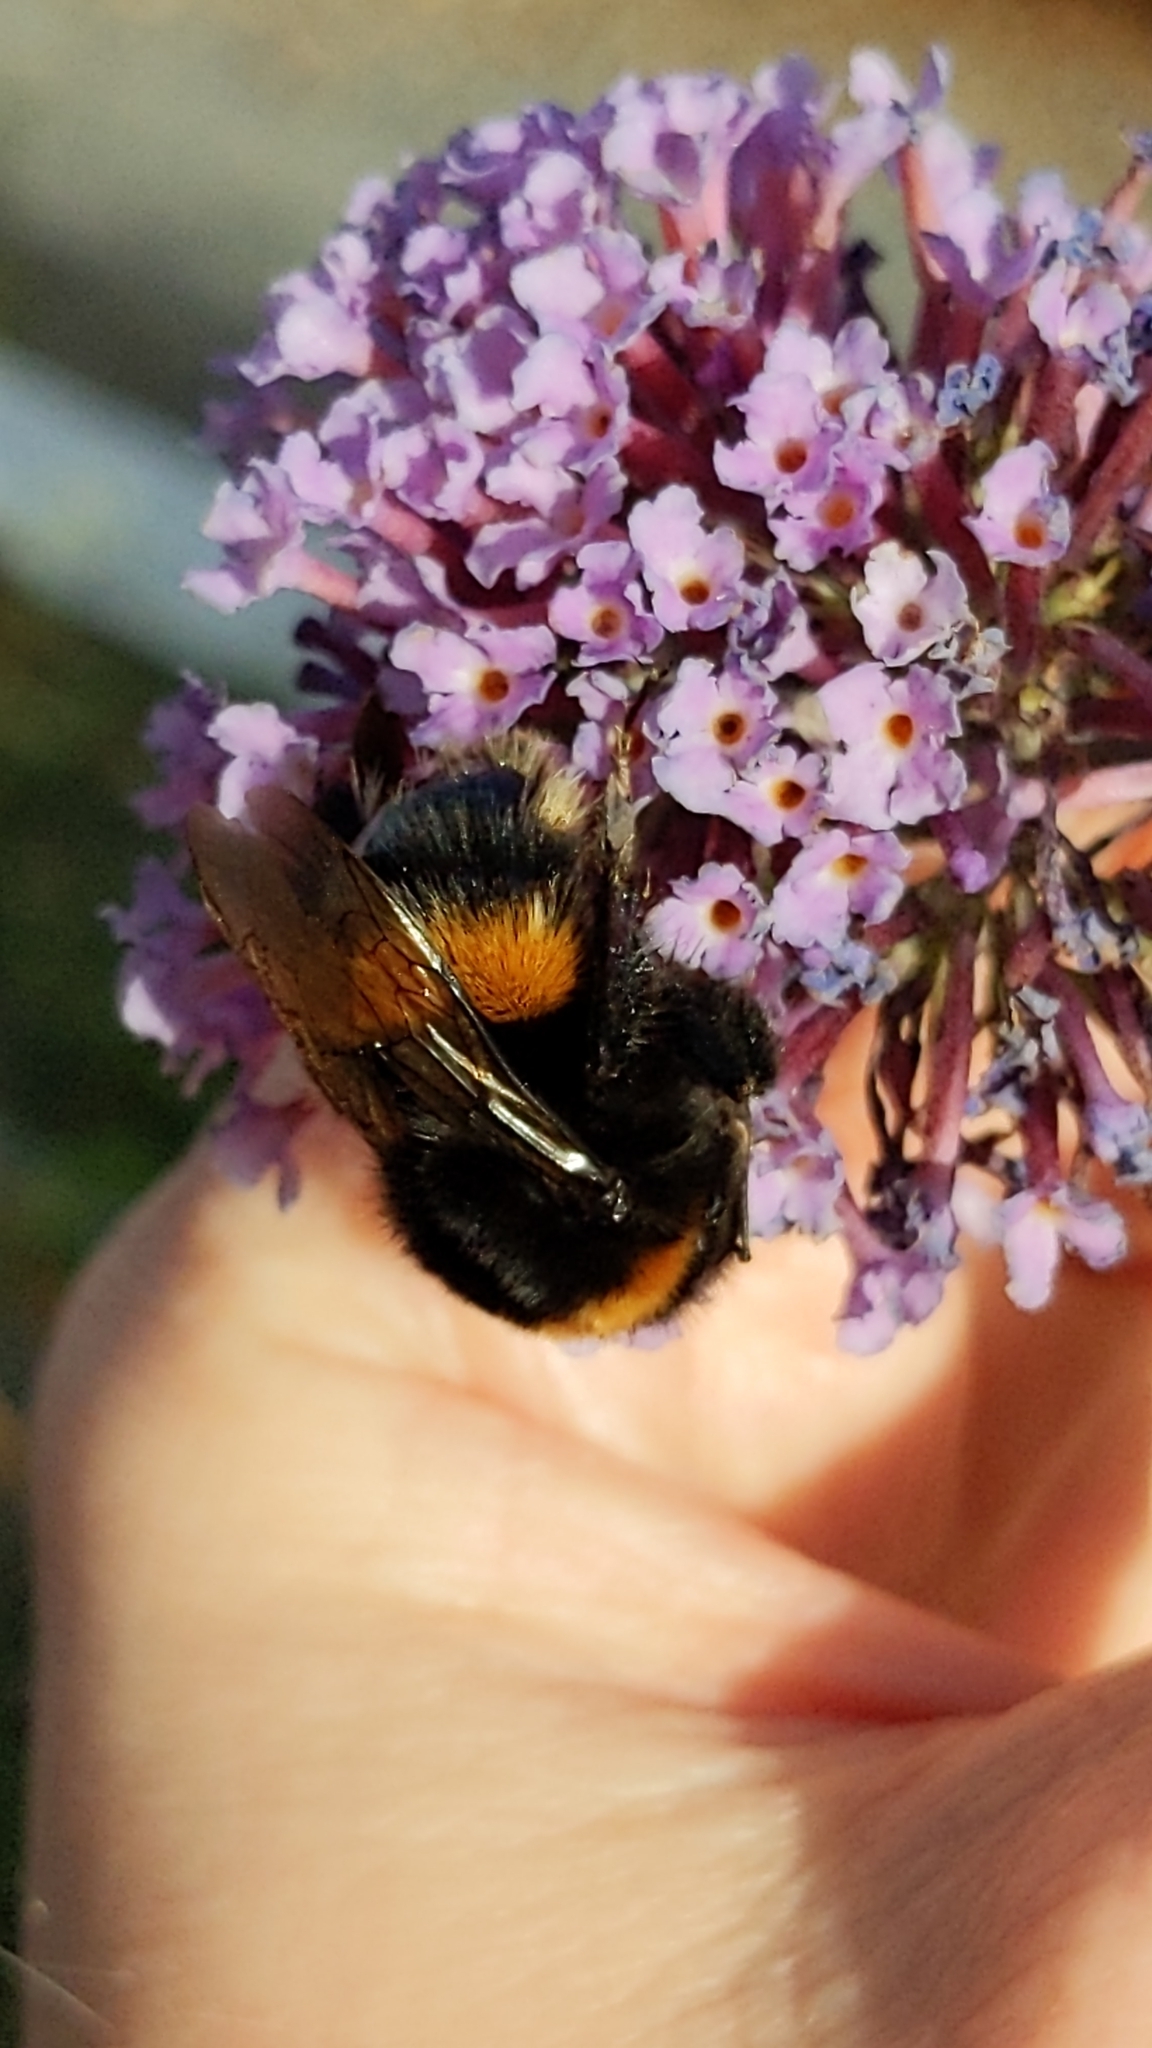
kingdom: Animalia
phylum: Arthropoda
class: Insecta
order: Hymenoptera
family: Apidae
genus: Bombus
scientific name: Bombus terrestris
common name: Buff-tailed bumblebee
